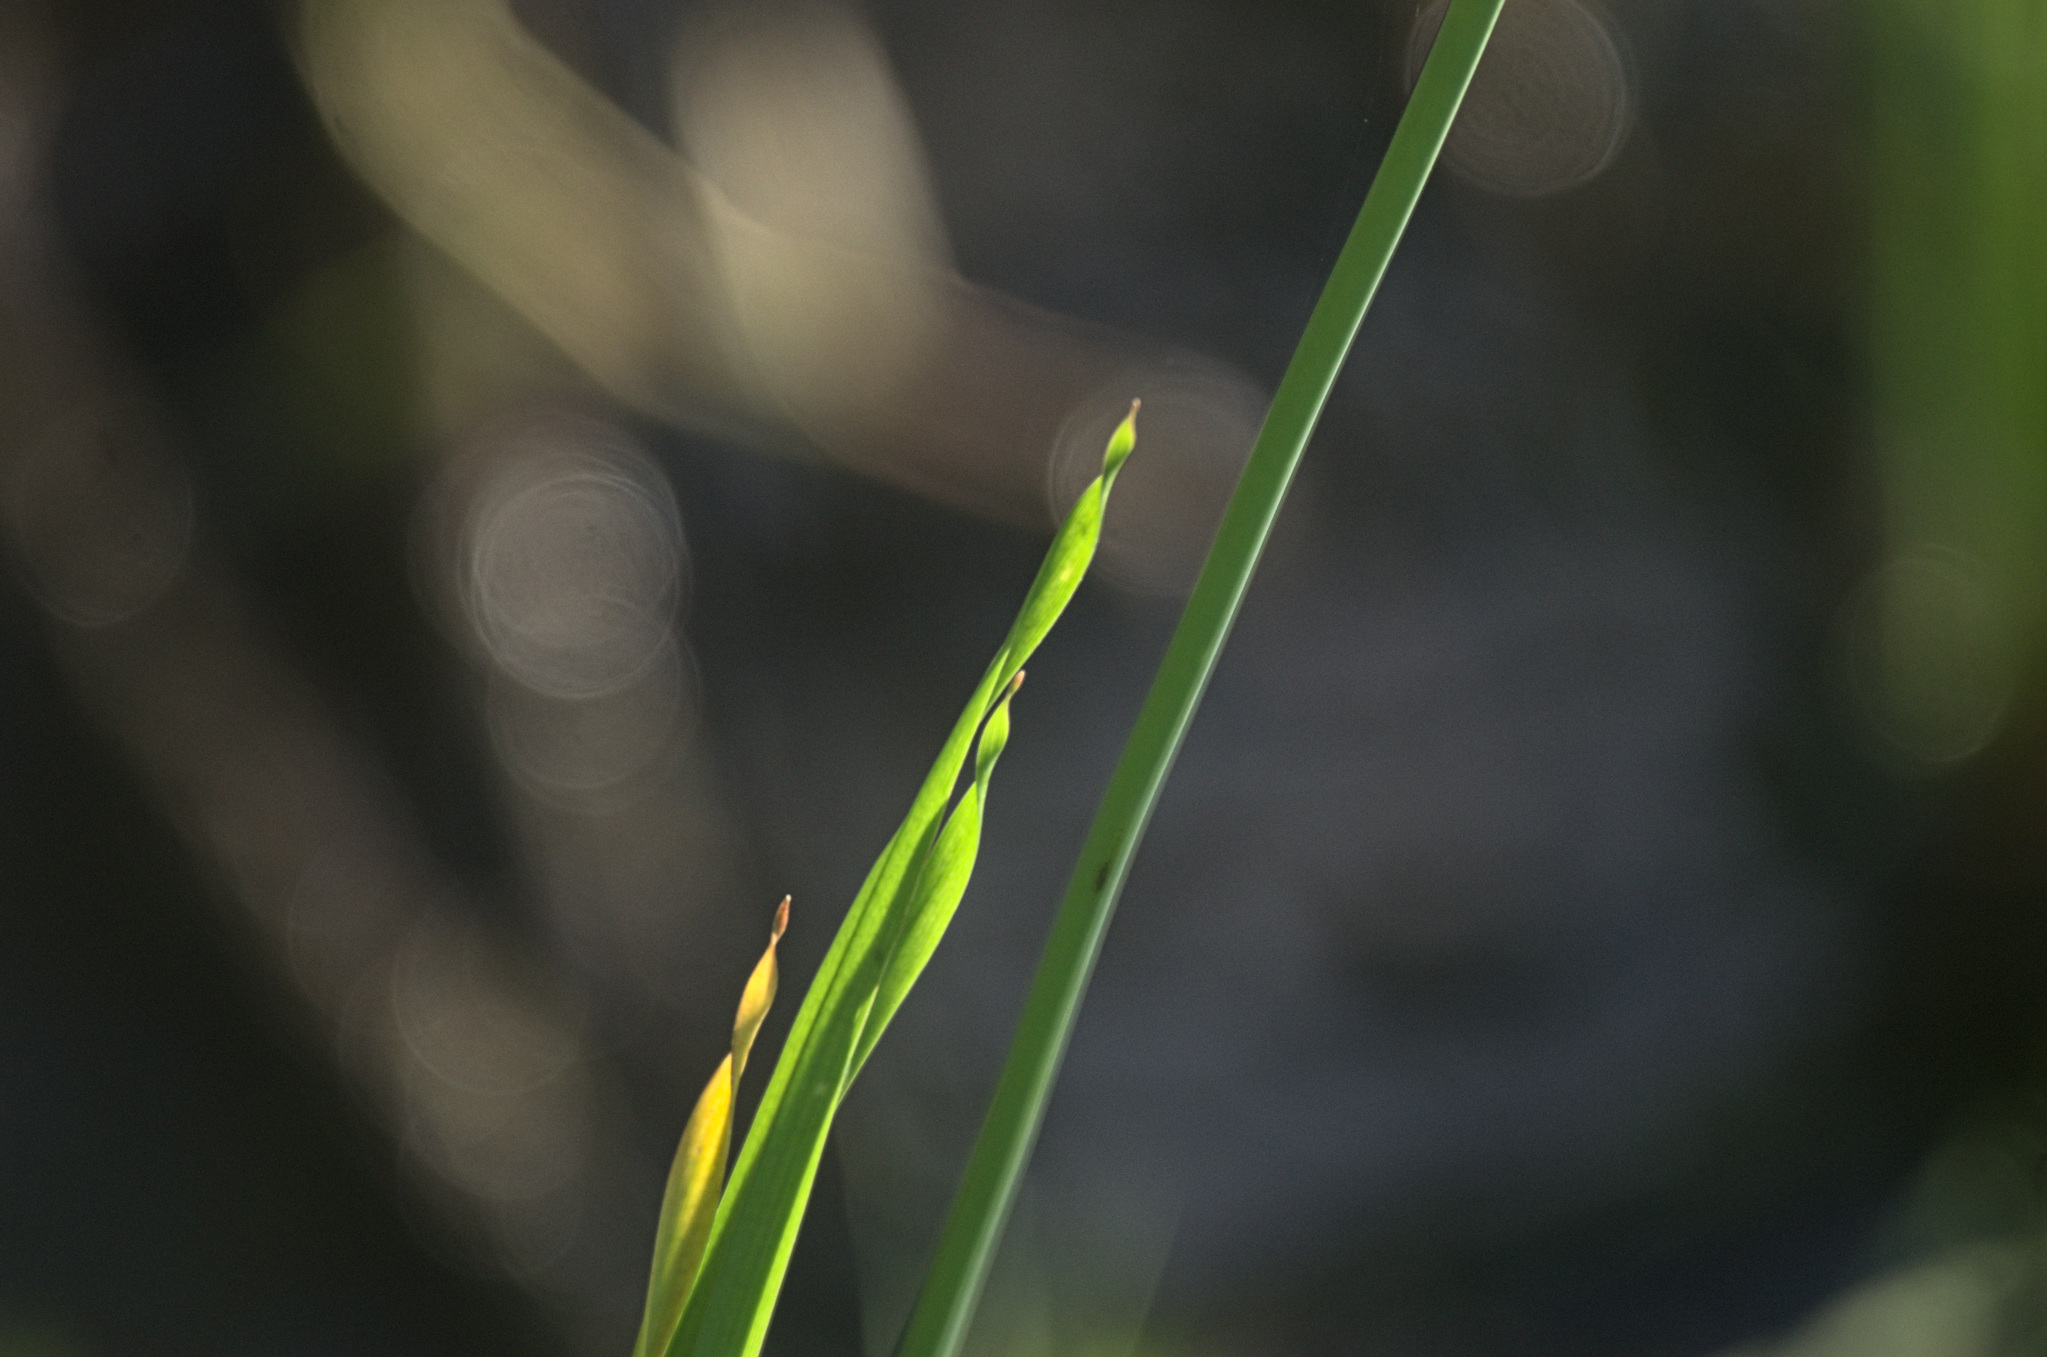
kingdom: Plantae
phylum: Tracheophyta
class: Liliopsida
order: Alismatales
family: Butomaceae
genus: Butomus
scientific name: Butomus umbellatus
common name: Flowering-rush
